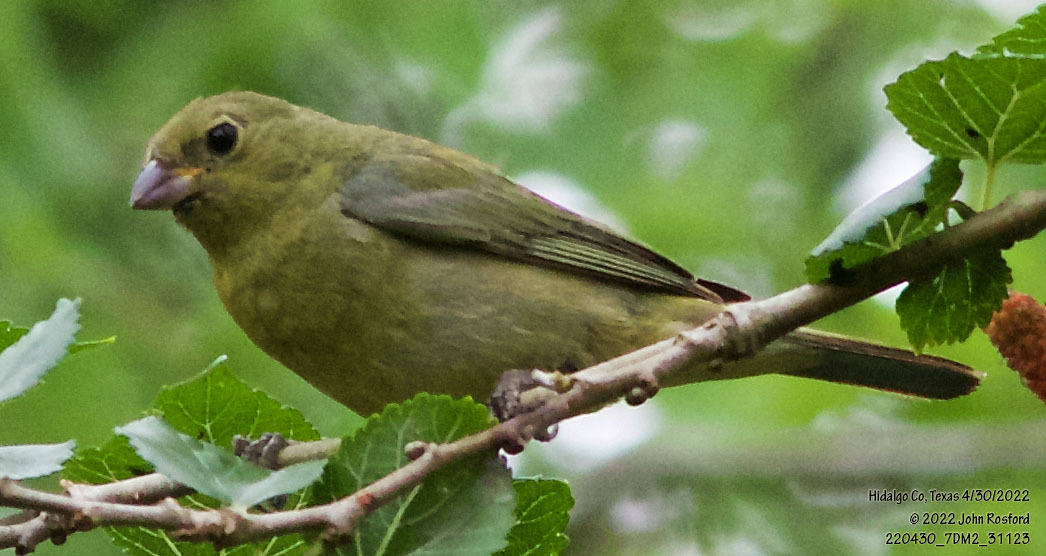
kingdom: Animalia
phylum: Chordata
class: Aves
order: Passeriformes
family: Cardinalidae
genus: Passerina
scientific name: Passerina ciris
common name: Painted bunting
